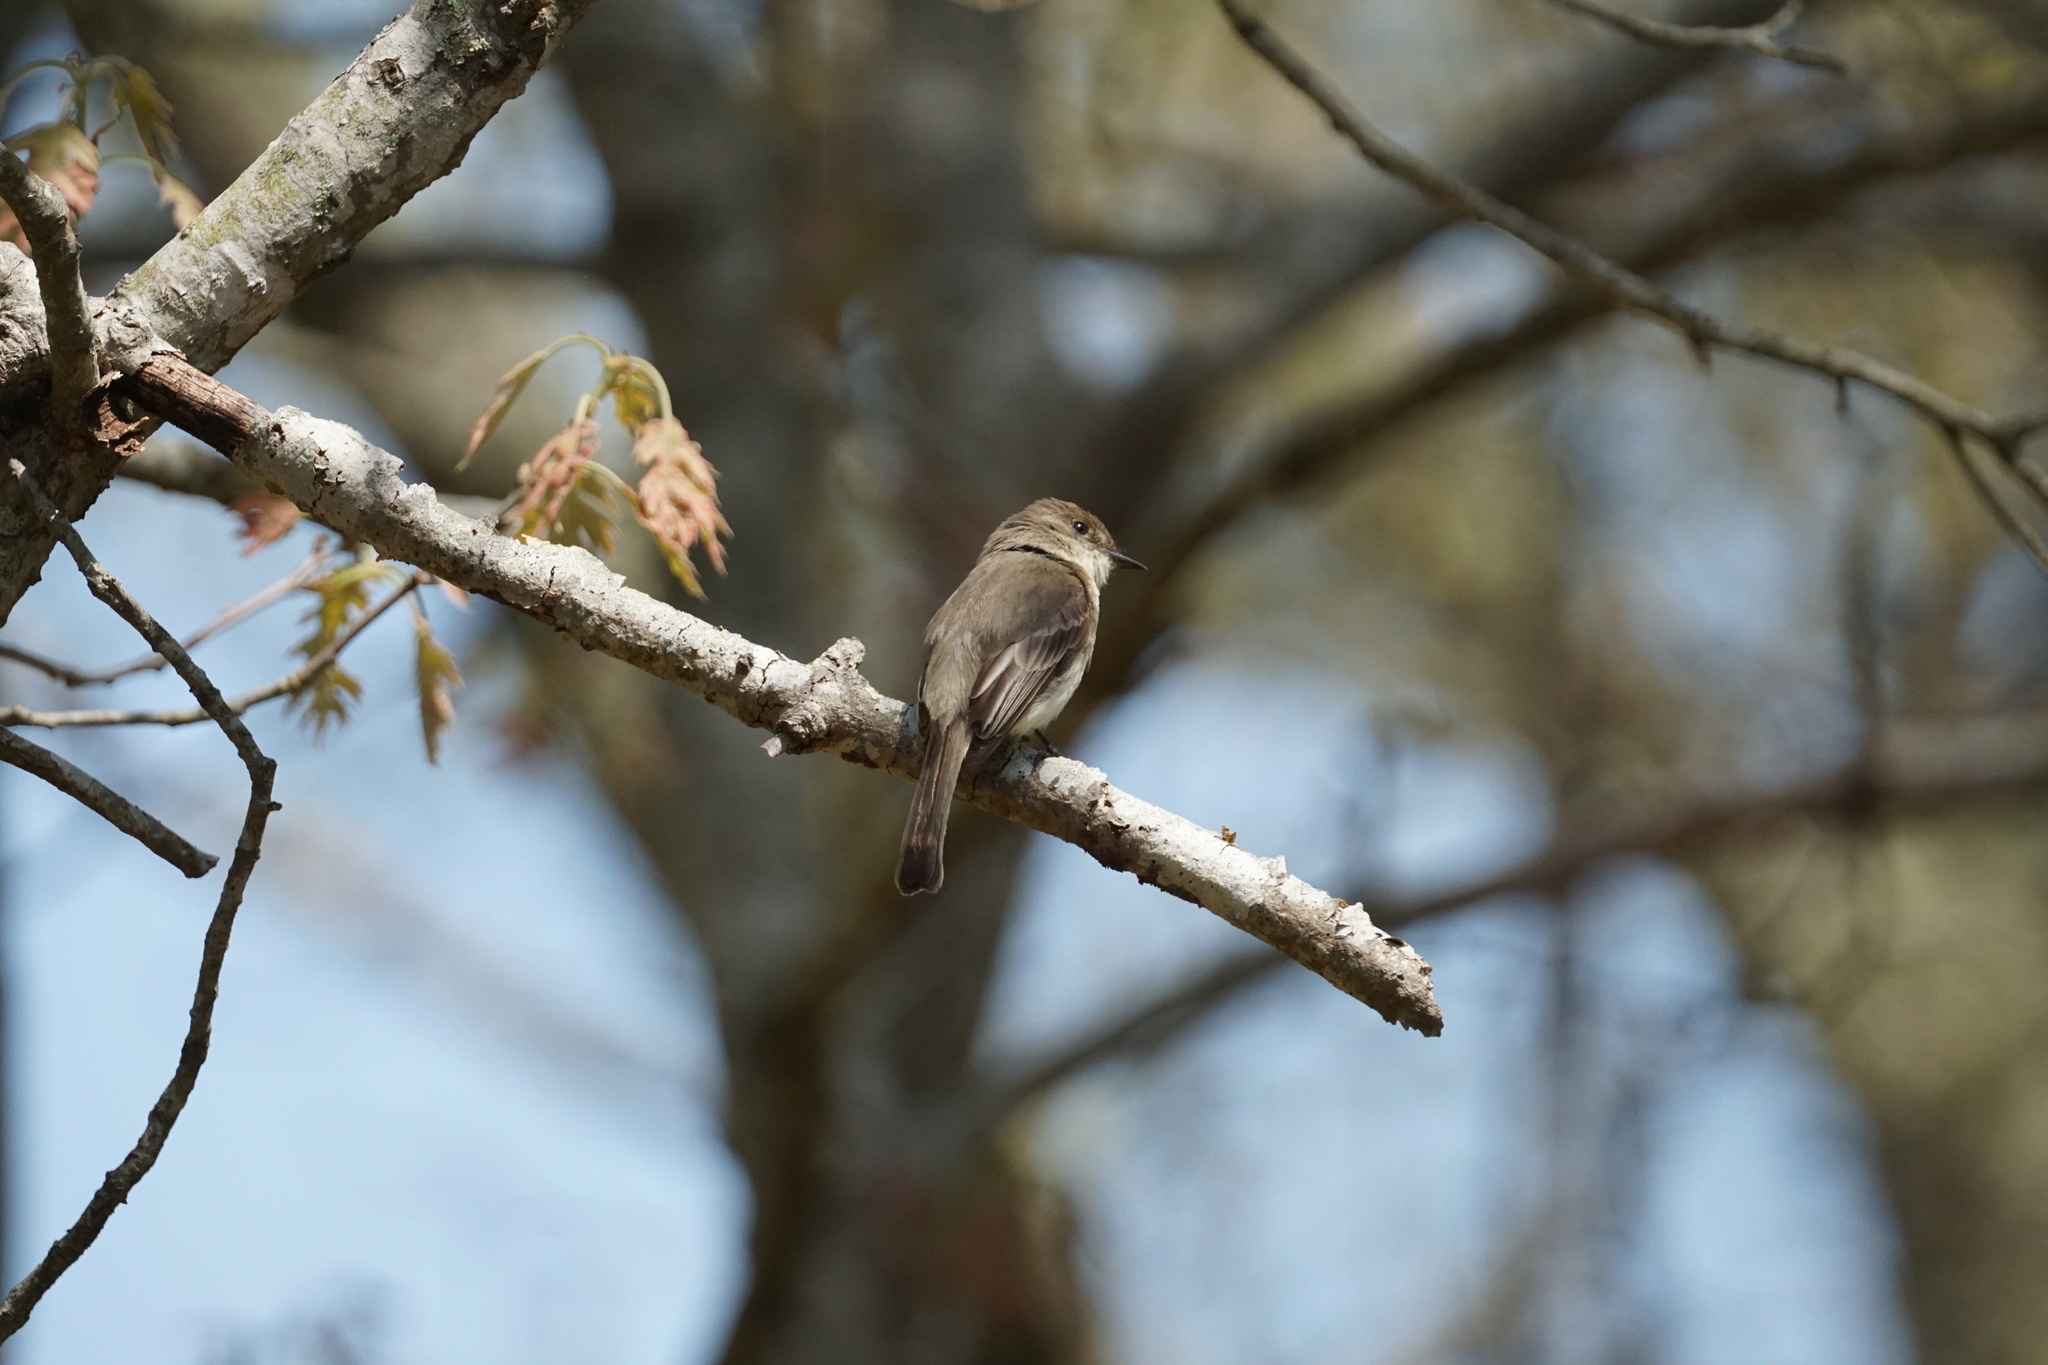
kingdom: Animalia
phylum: Chordata
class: Aves
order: Passeriformes
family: Tyrannidae
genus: Sayornis
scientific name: Sayornis phoebe
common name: Eastern phoebe
